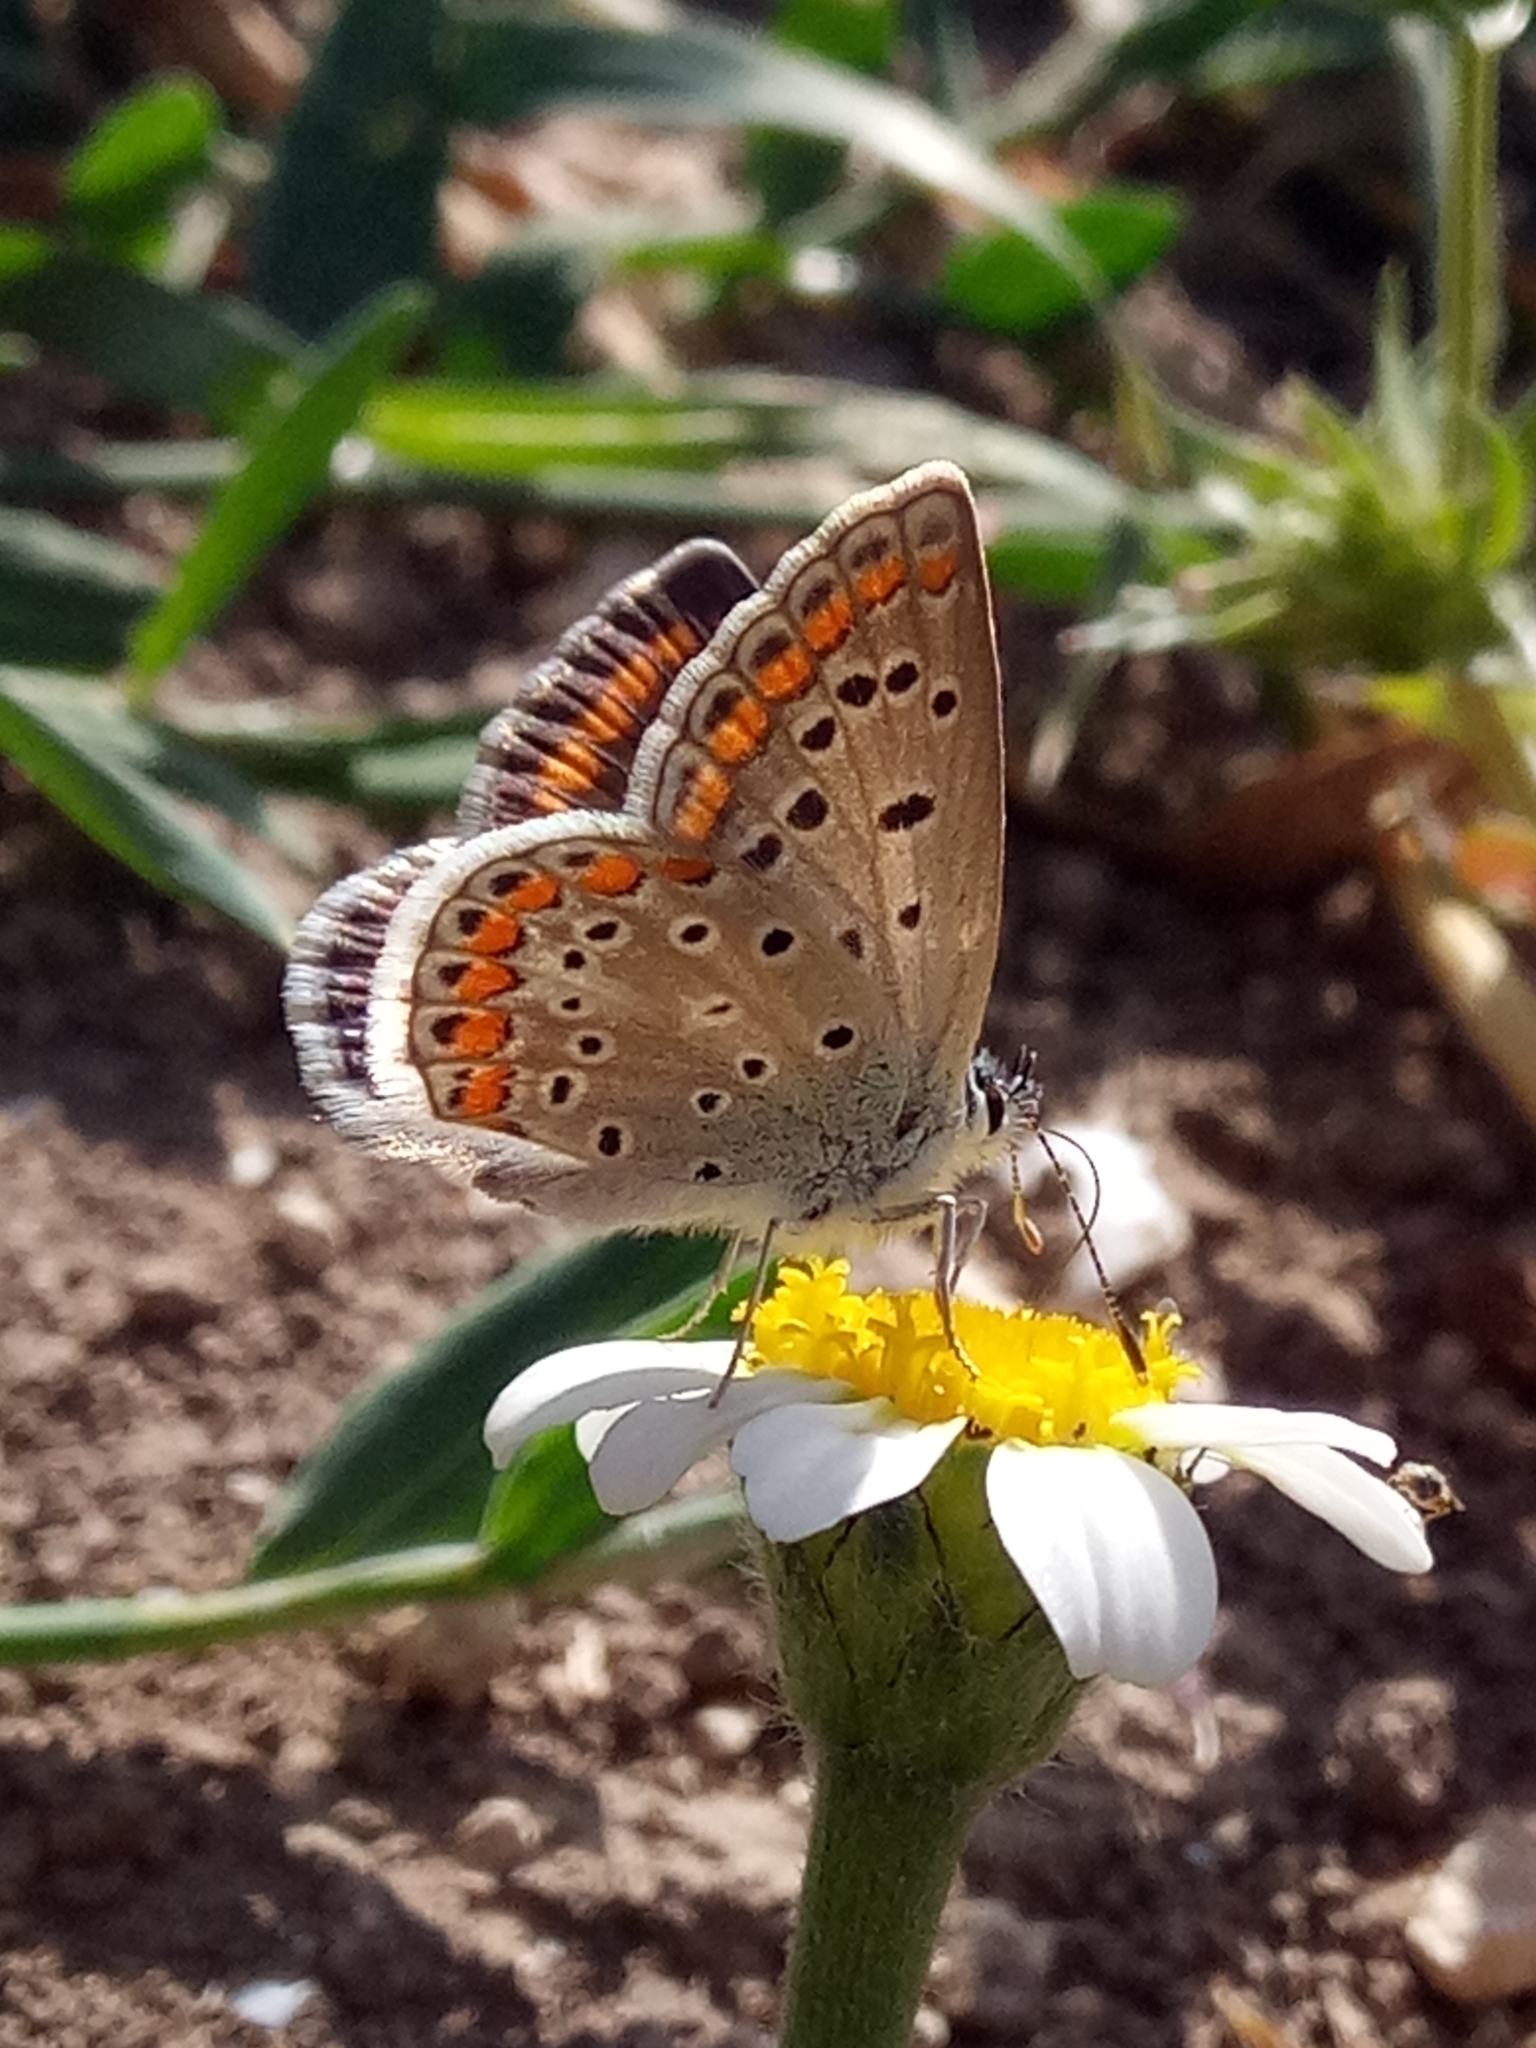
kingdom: Animalia
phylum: Arthropoda
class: Insecta
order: Lepidoptera
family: Lycaenidae
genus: Polyommatus
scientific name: Polyommatus celina
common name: Austaut's blue
